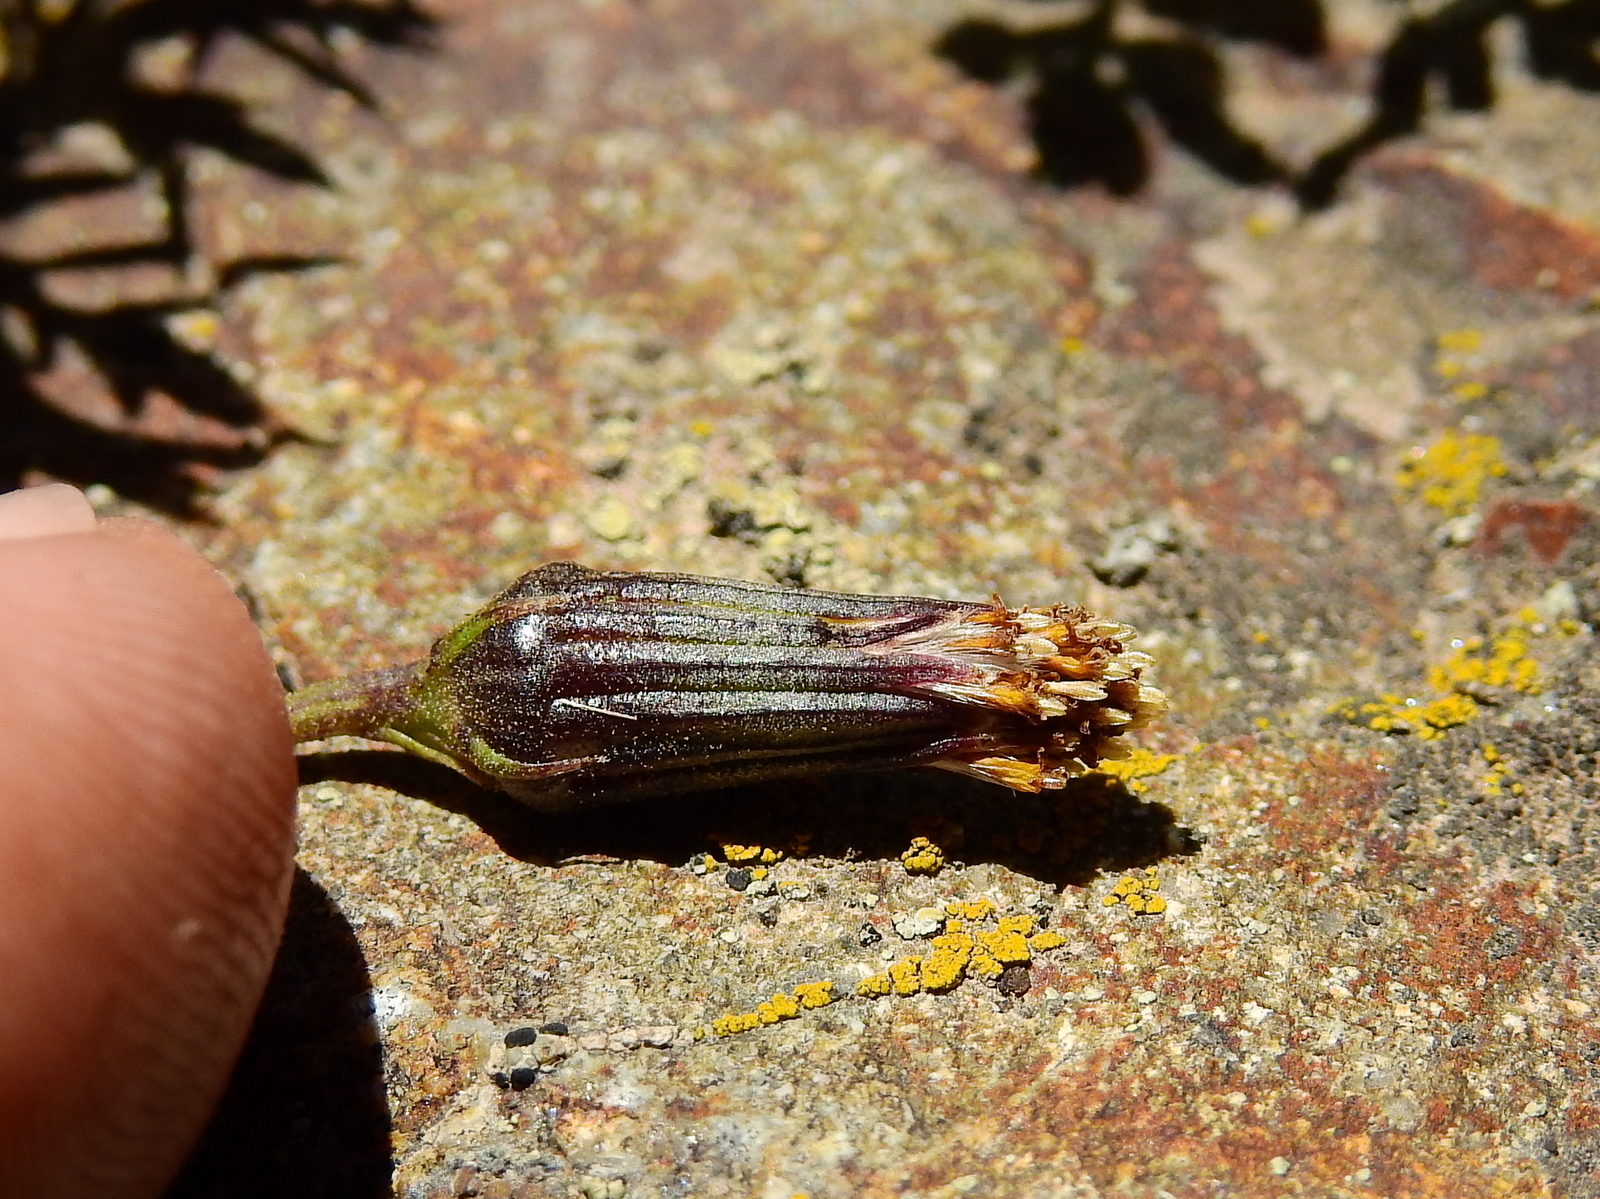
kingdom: Plantae
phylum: Tracheophyta
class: Magnoliopsida
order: Asterales
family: Asteraceae
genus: Senecio
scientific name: Senecio trifidus
